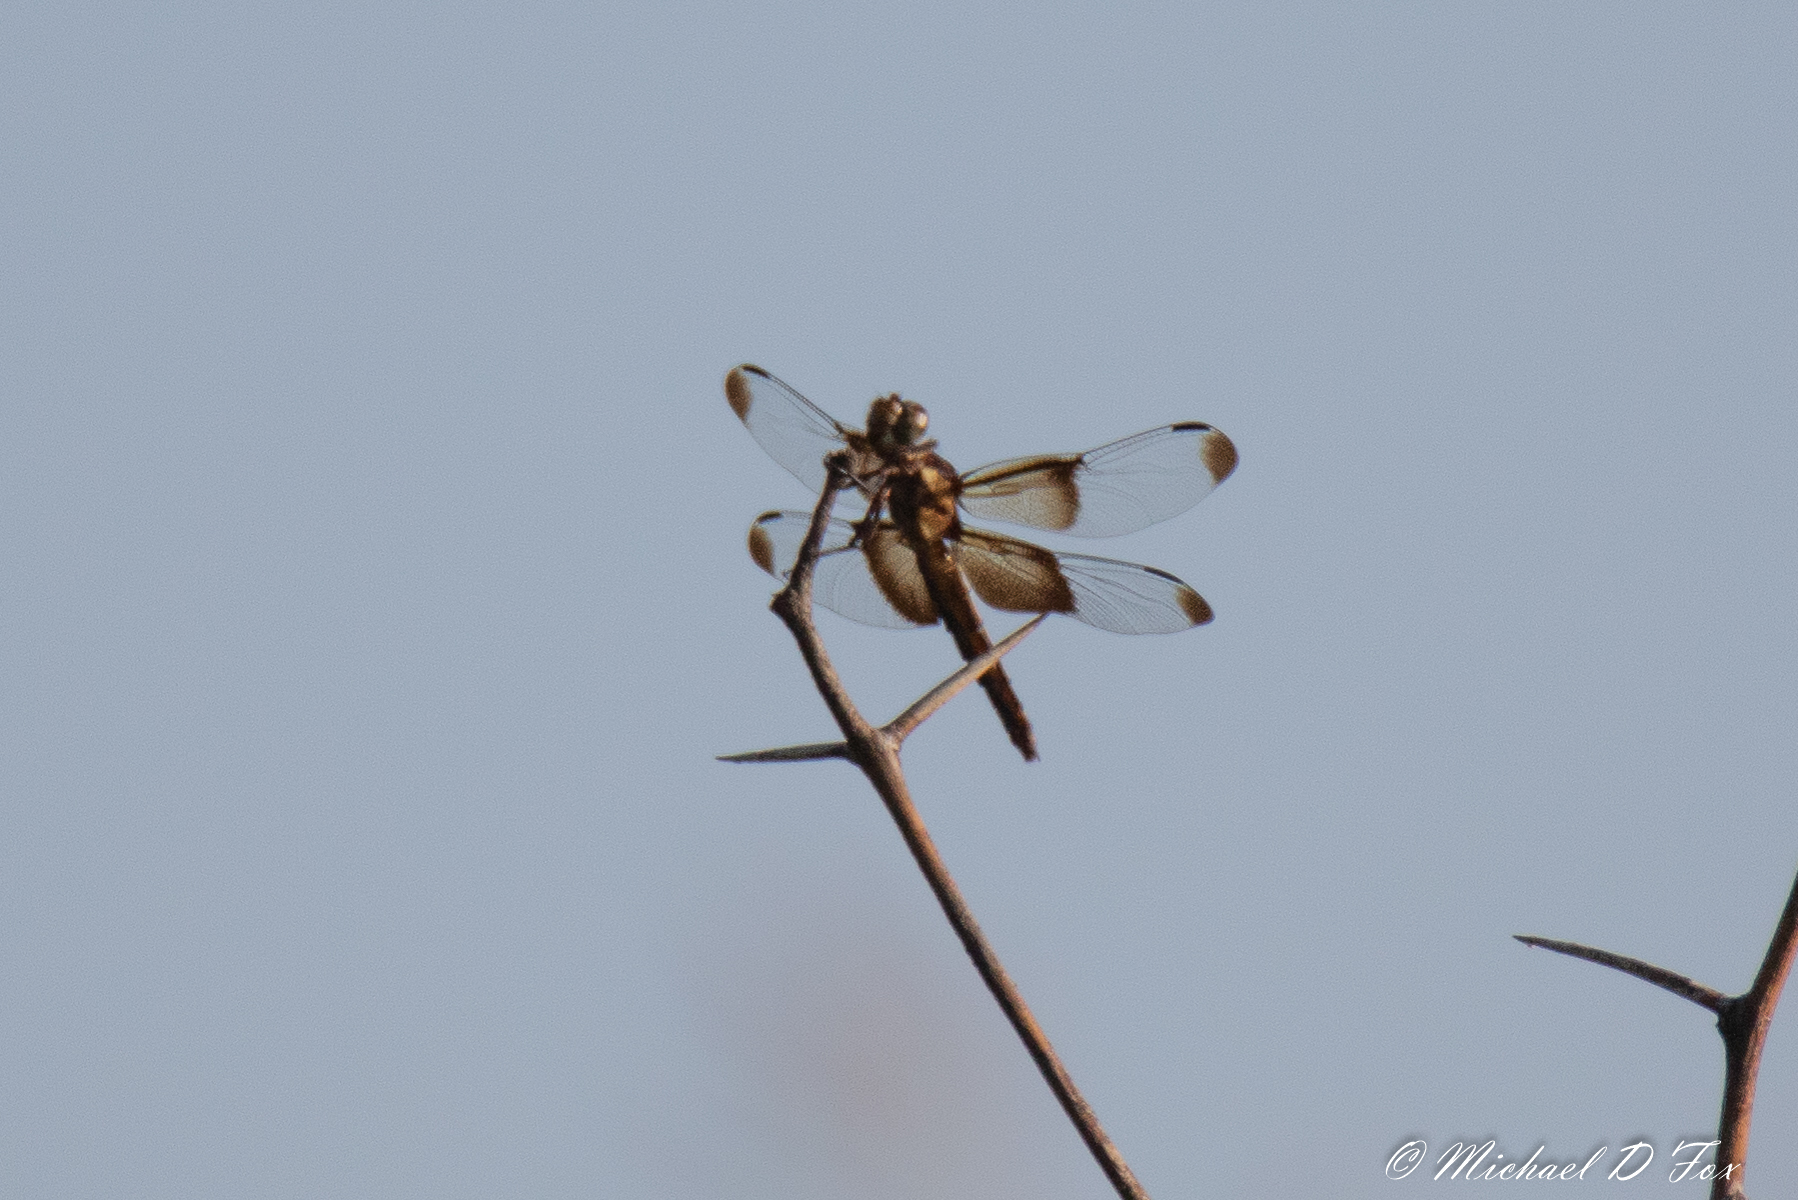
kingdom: Animalia
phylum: Arthropoda
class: Insecta
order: Odonata
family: Libellulidae
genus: Libellula
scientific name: Libellula luctuosa
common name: Widow skimmer
